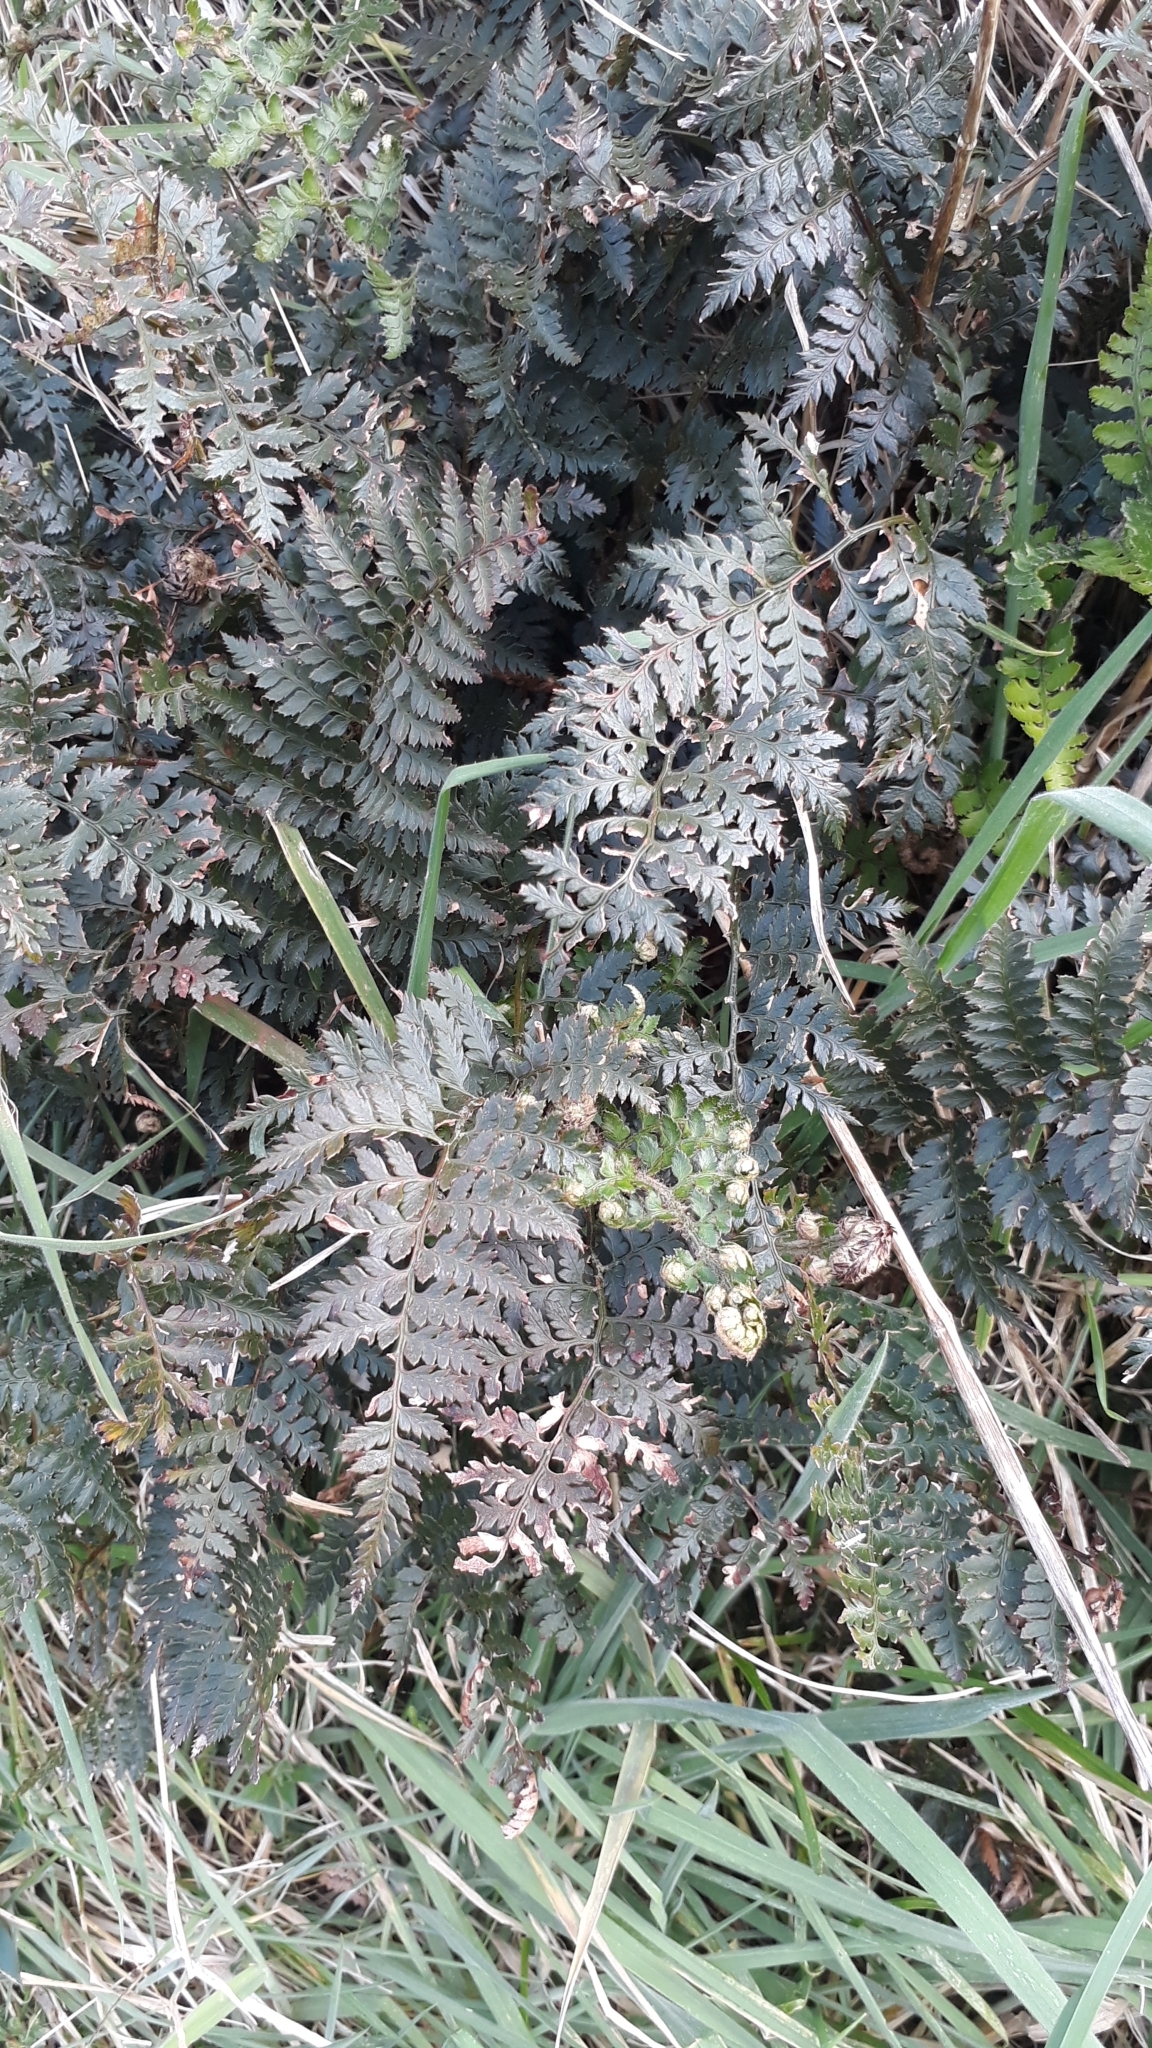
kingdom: Plantae
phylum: Tracheophyta
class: Polypodiopsida
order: Polypodiales
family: Dryopteridaceae
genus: Polystichum
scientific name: Polystichum oculatum
